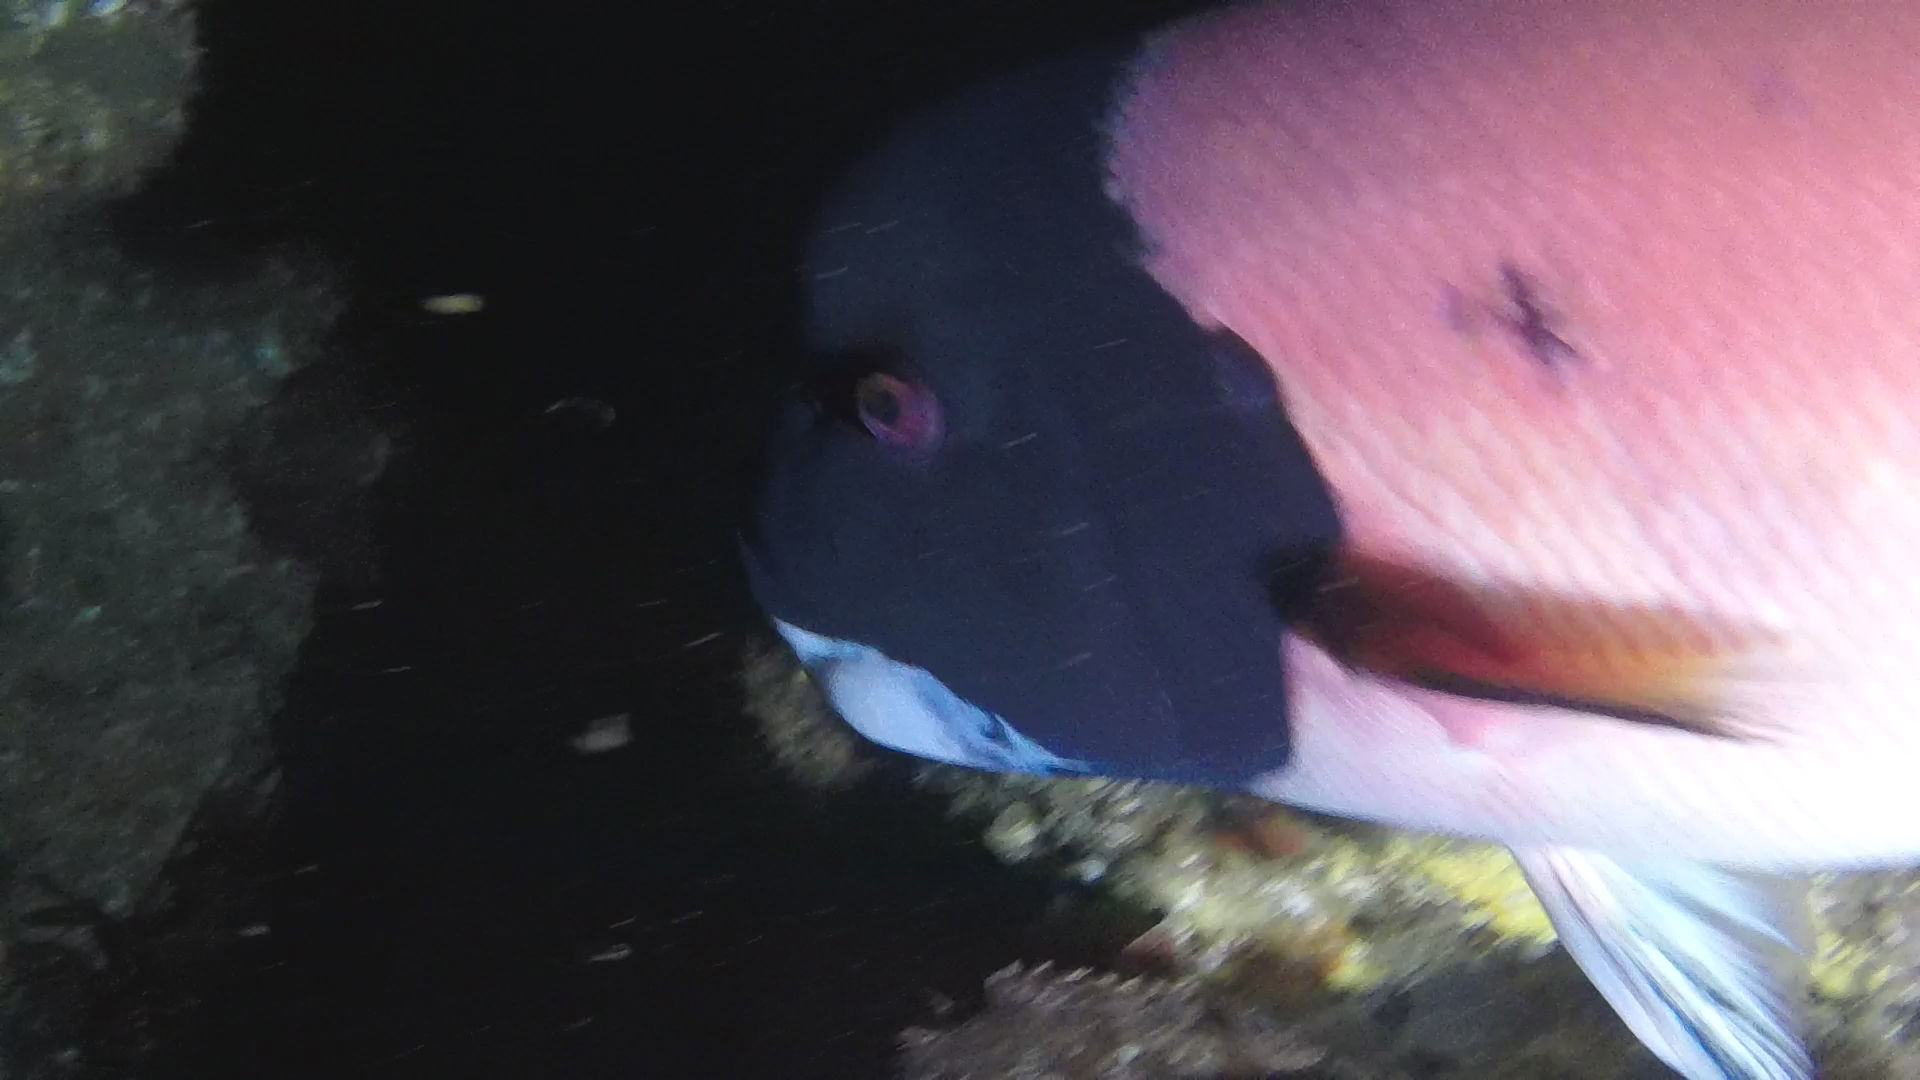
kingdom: Animalia
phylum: Chordata
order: Perciformes
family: Labridae
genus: Semicossyphus
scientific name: Semicossyphus pulcher
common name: California sheephead
